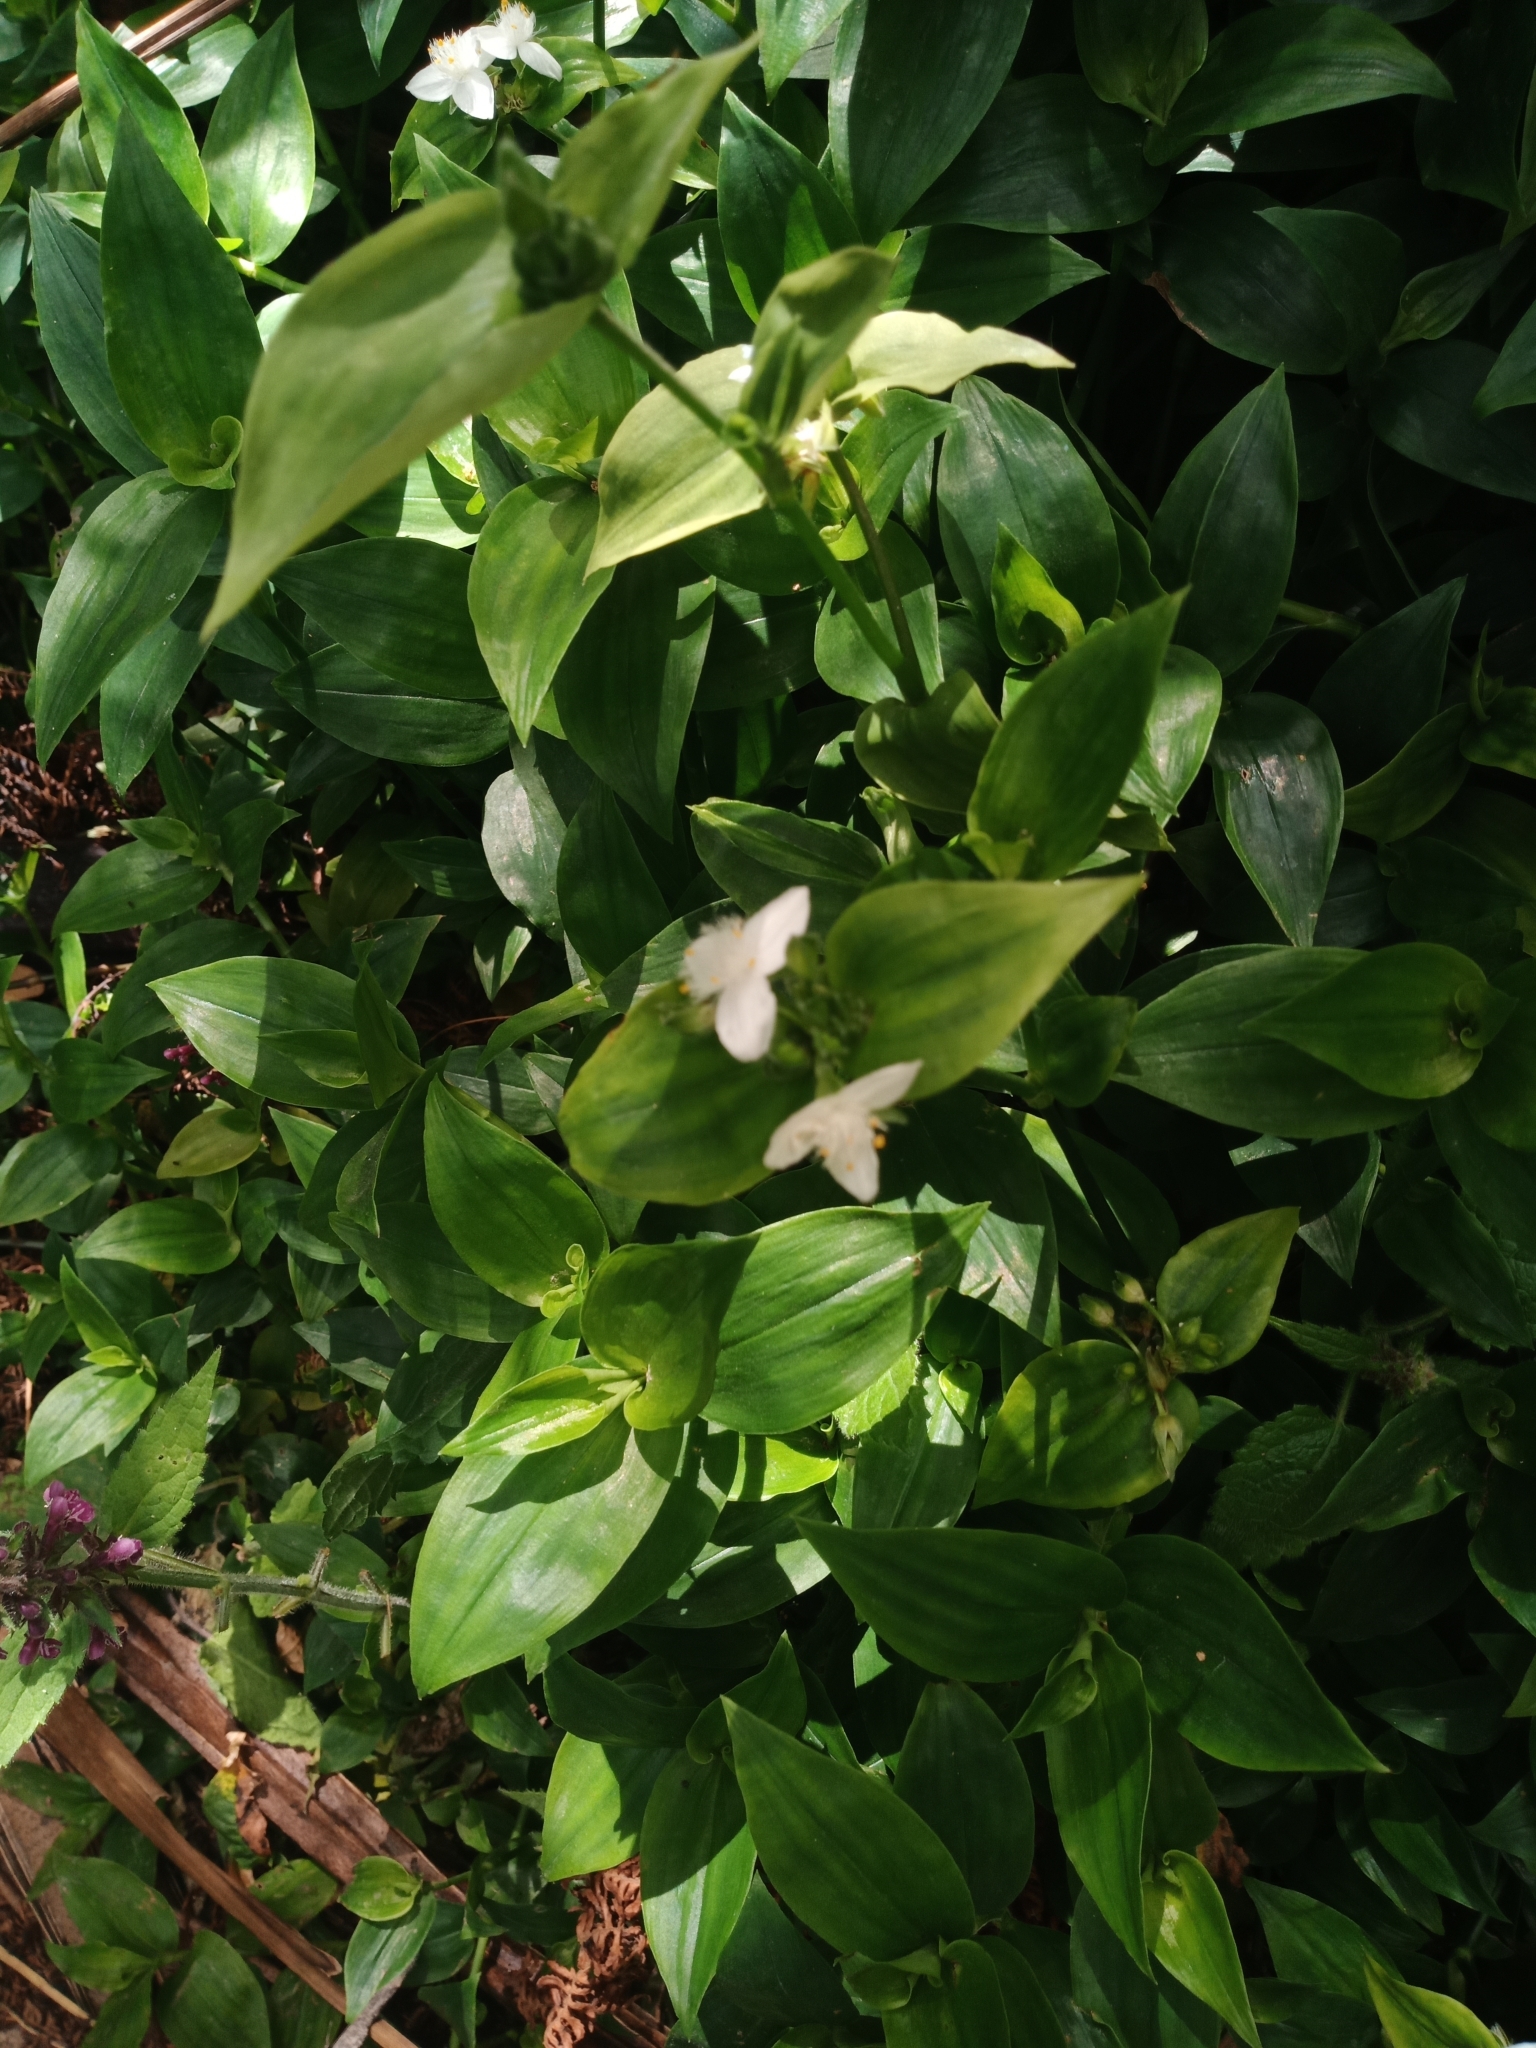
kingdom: Plantae
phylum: Tracheophyta
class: Liliopsida
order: Commelinales
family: Commelinaceae
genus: Tradescantia
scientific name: Tradescantia fluminensis
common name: Wandering-jew
